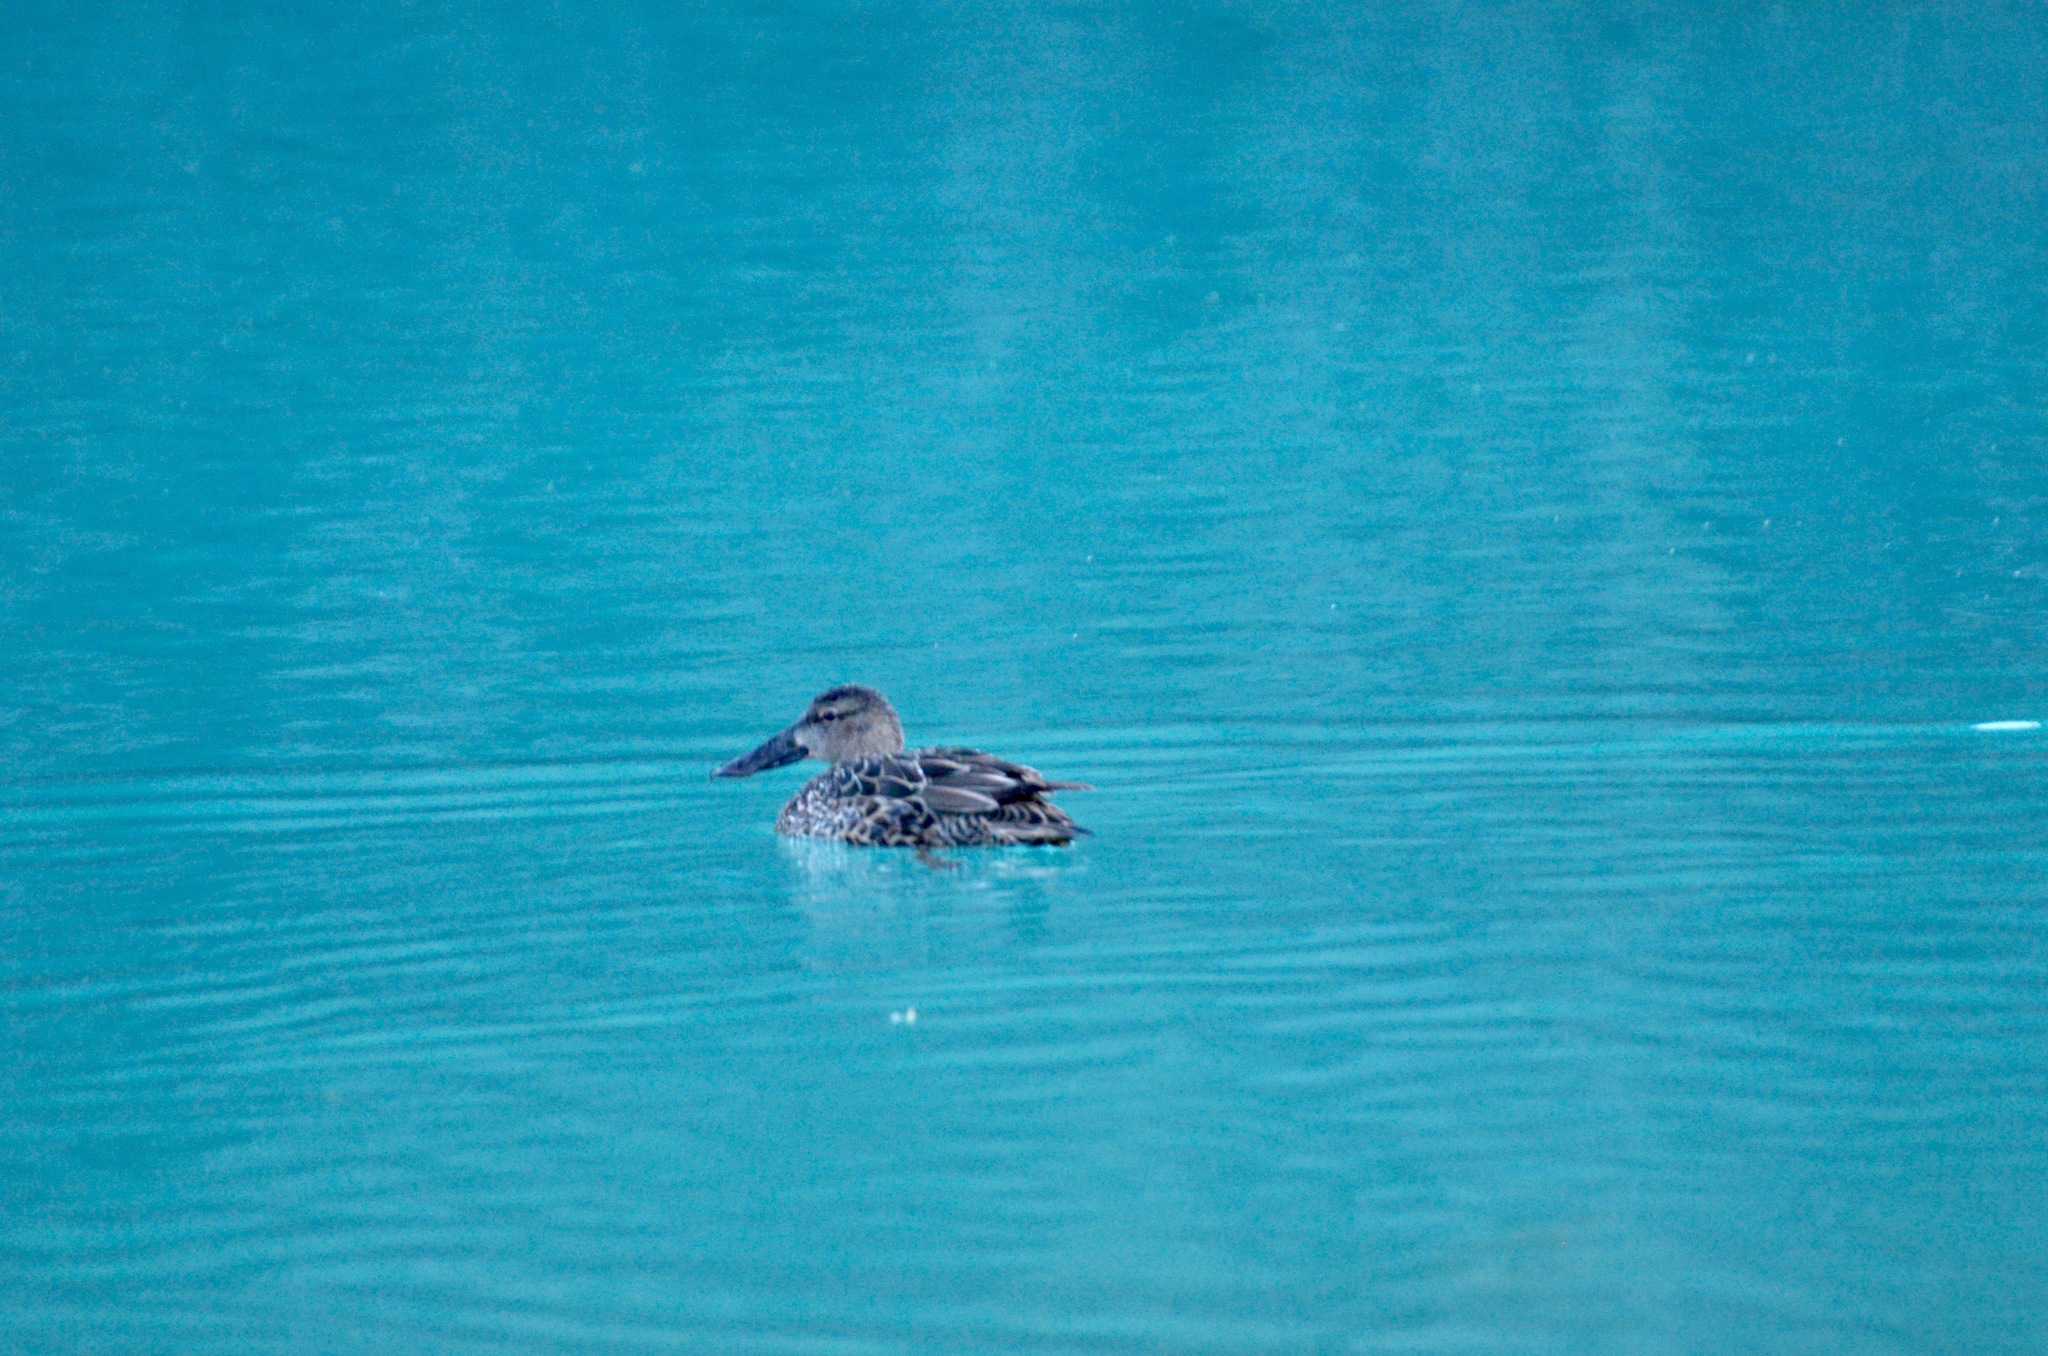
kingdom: Animalia
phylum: Chordata
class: Aves
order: Anseriformes
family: Anatidae
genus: Spatula
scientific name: Spatula rhynchotis
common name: Australian shoveler
